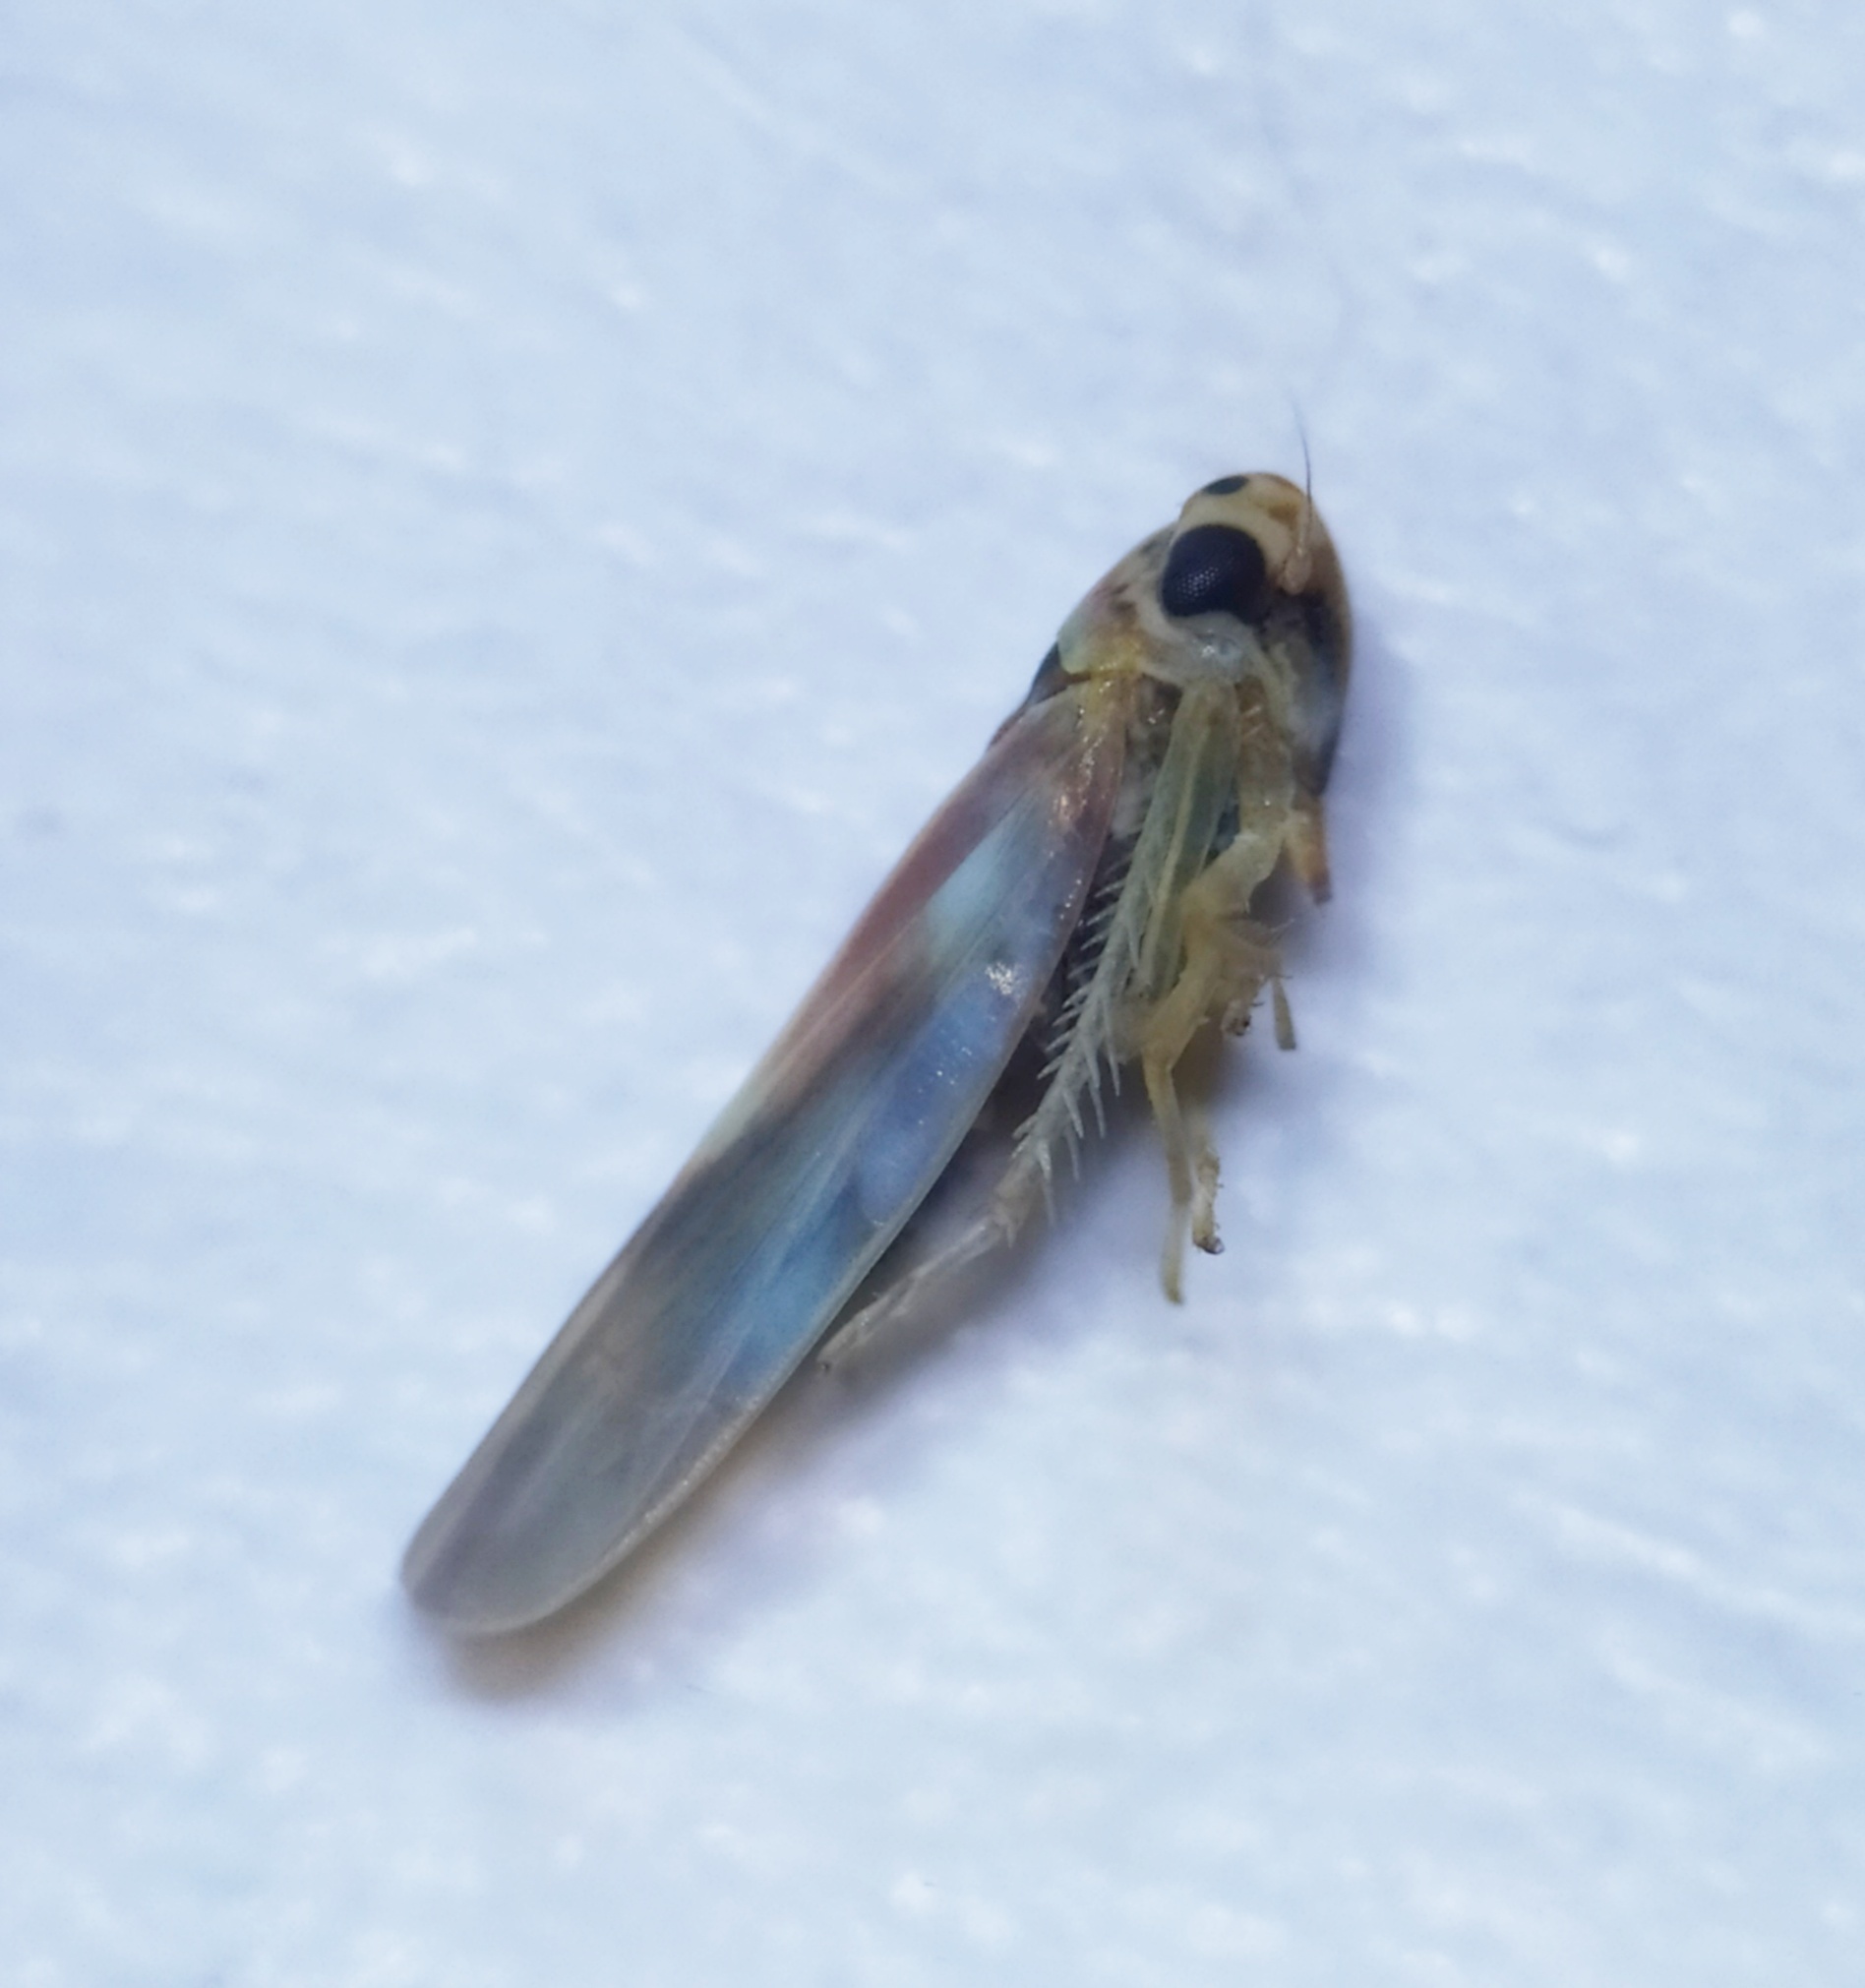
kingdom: Animalia
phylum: Arthropoda
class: Insecta
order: Hemiptera
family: Cicadellidae
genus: Arboridia
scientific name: Arboridia
